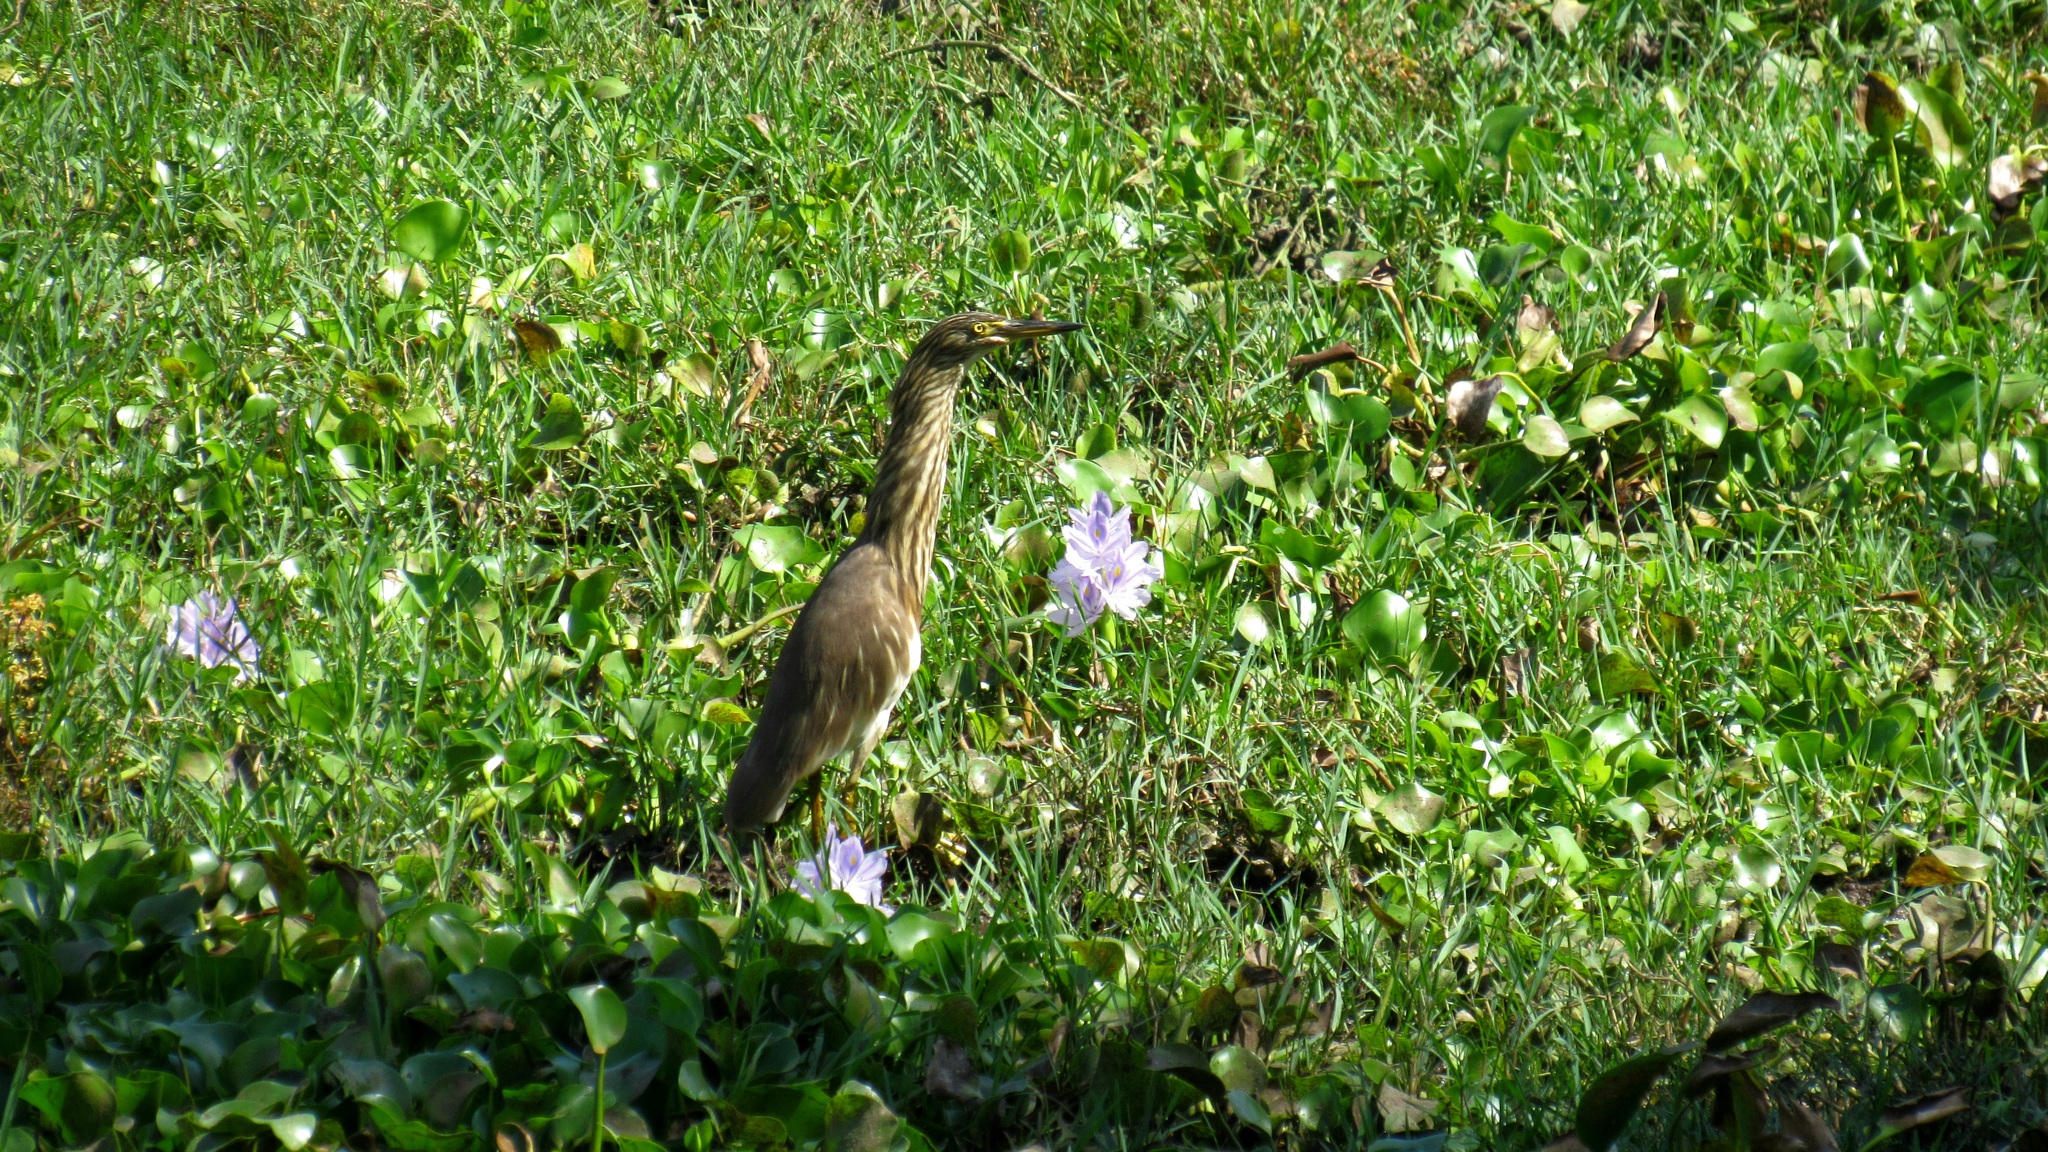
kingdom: Animalia
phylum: Chordata
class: Aves
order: Pelecaniformes
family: Ardeidae
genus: Ardeola
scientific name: Ardeola grayii
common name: Indian pond heron
